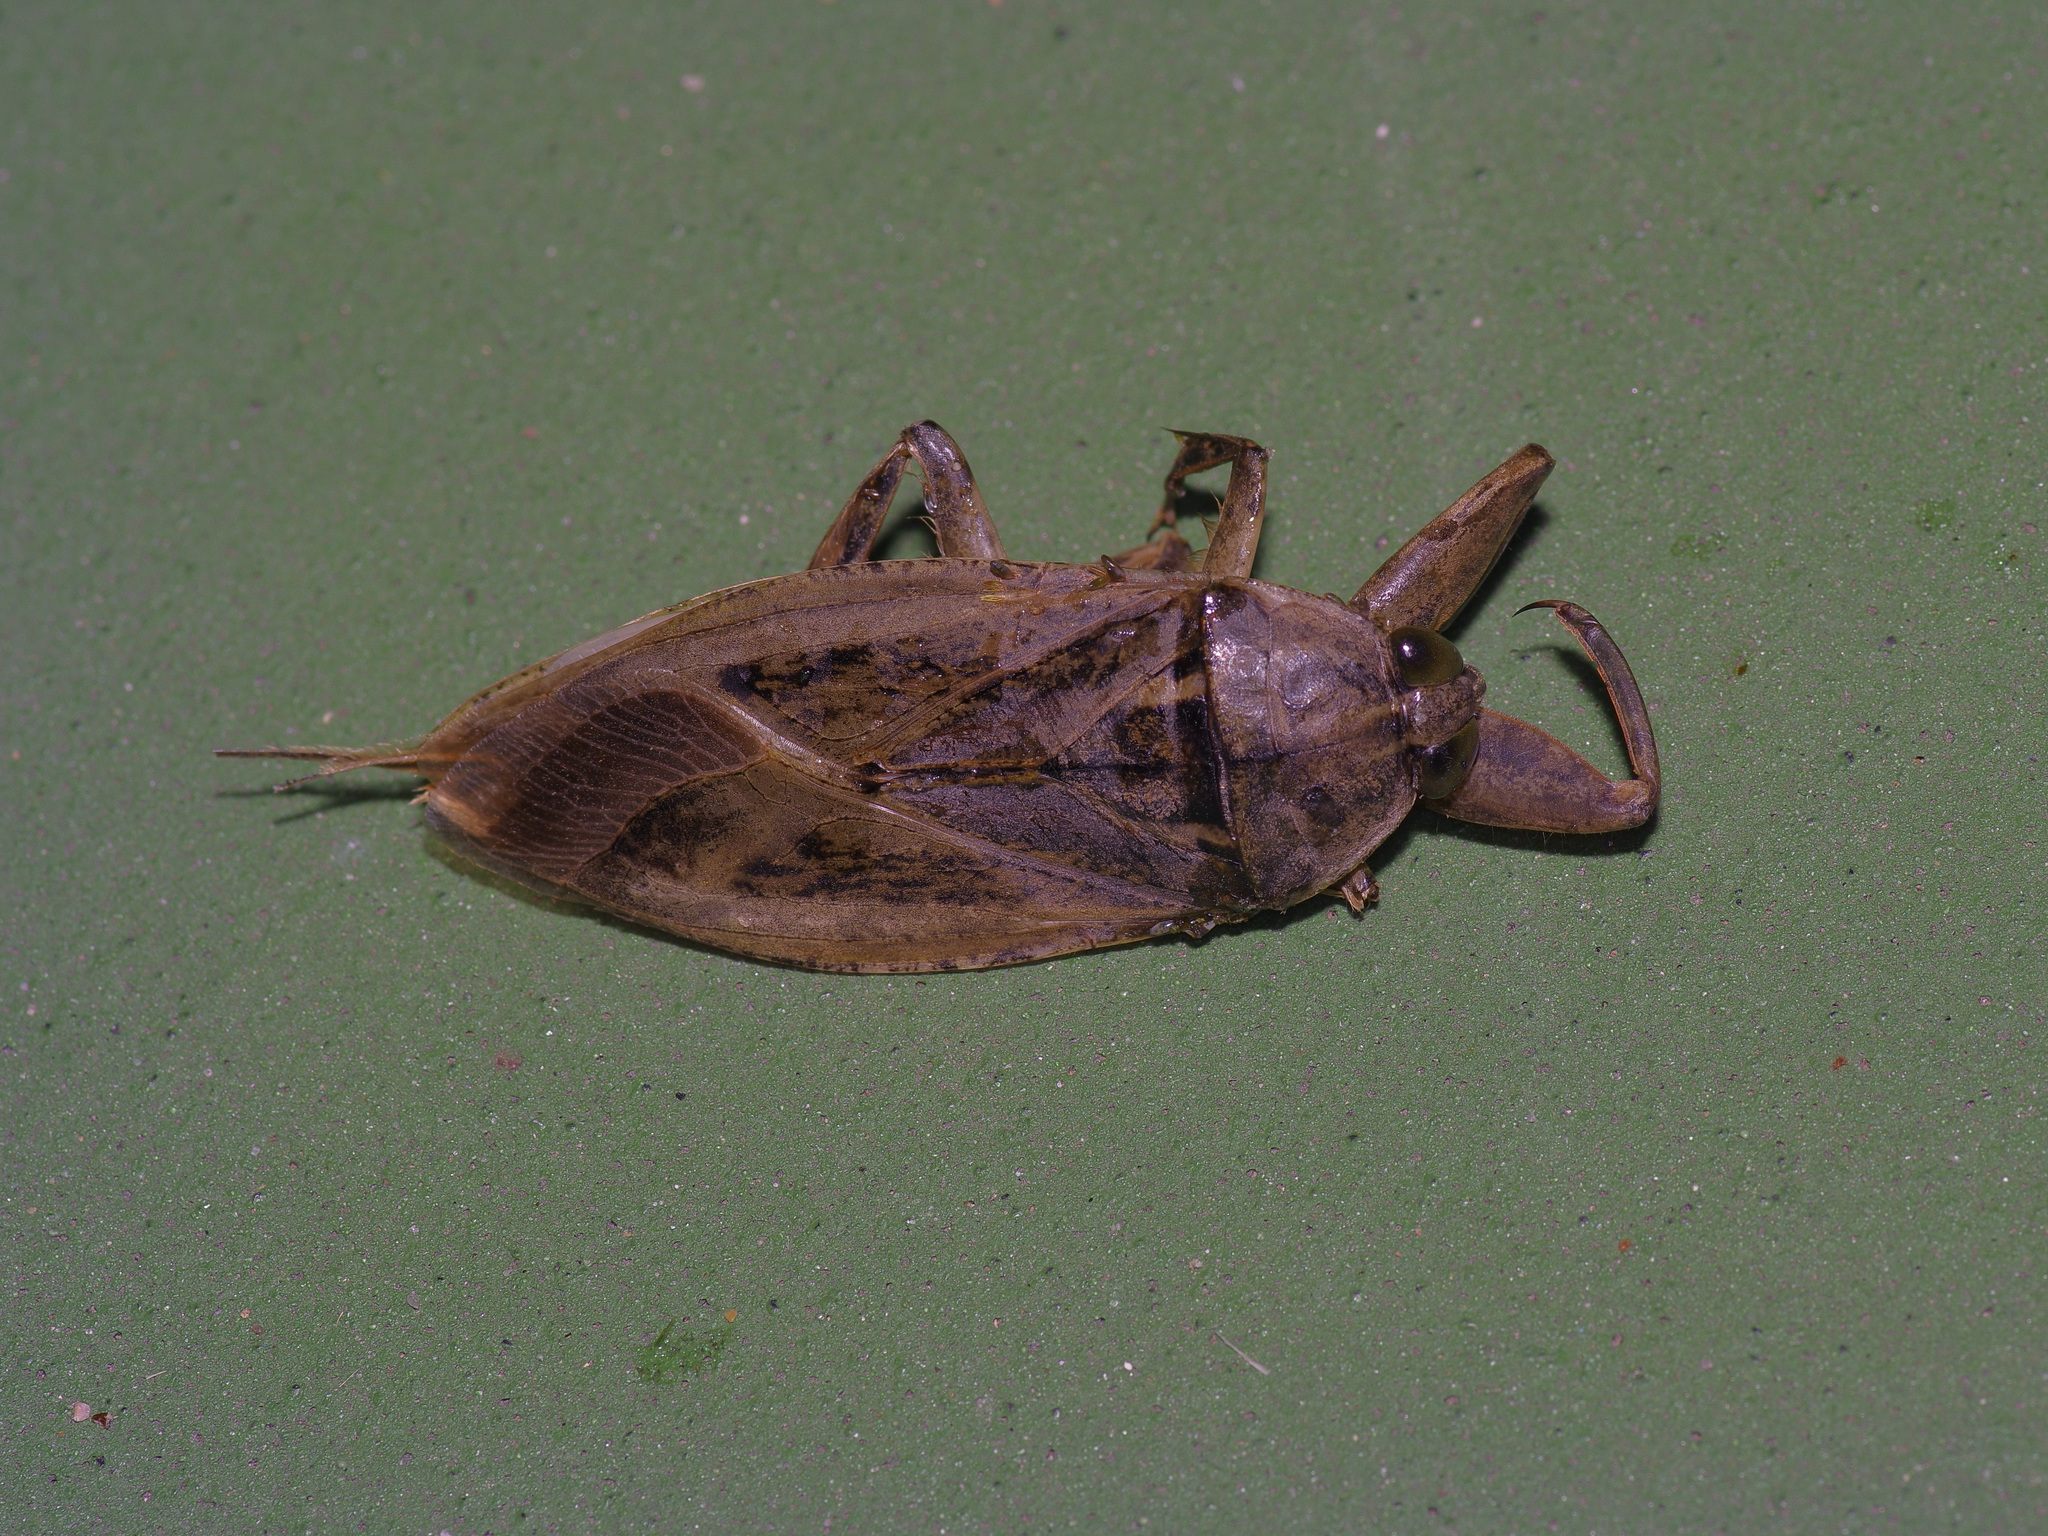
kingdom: Animalia
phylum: Arthropoda
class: Insecta
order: Hemiptera
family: Belostomatidae
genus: Lethocerus
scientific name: Lethocerus uhleri
